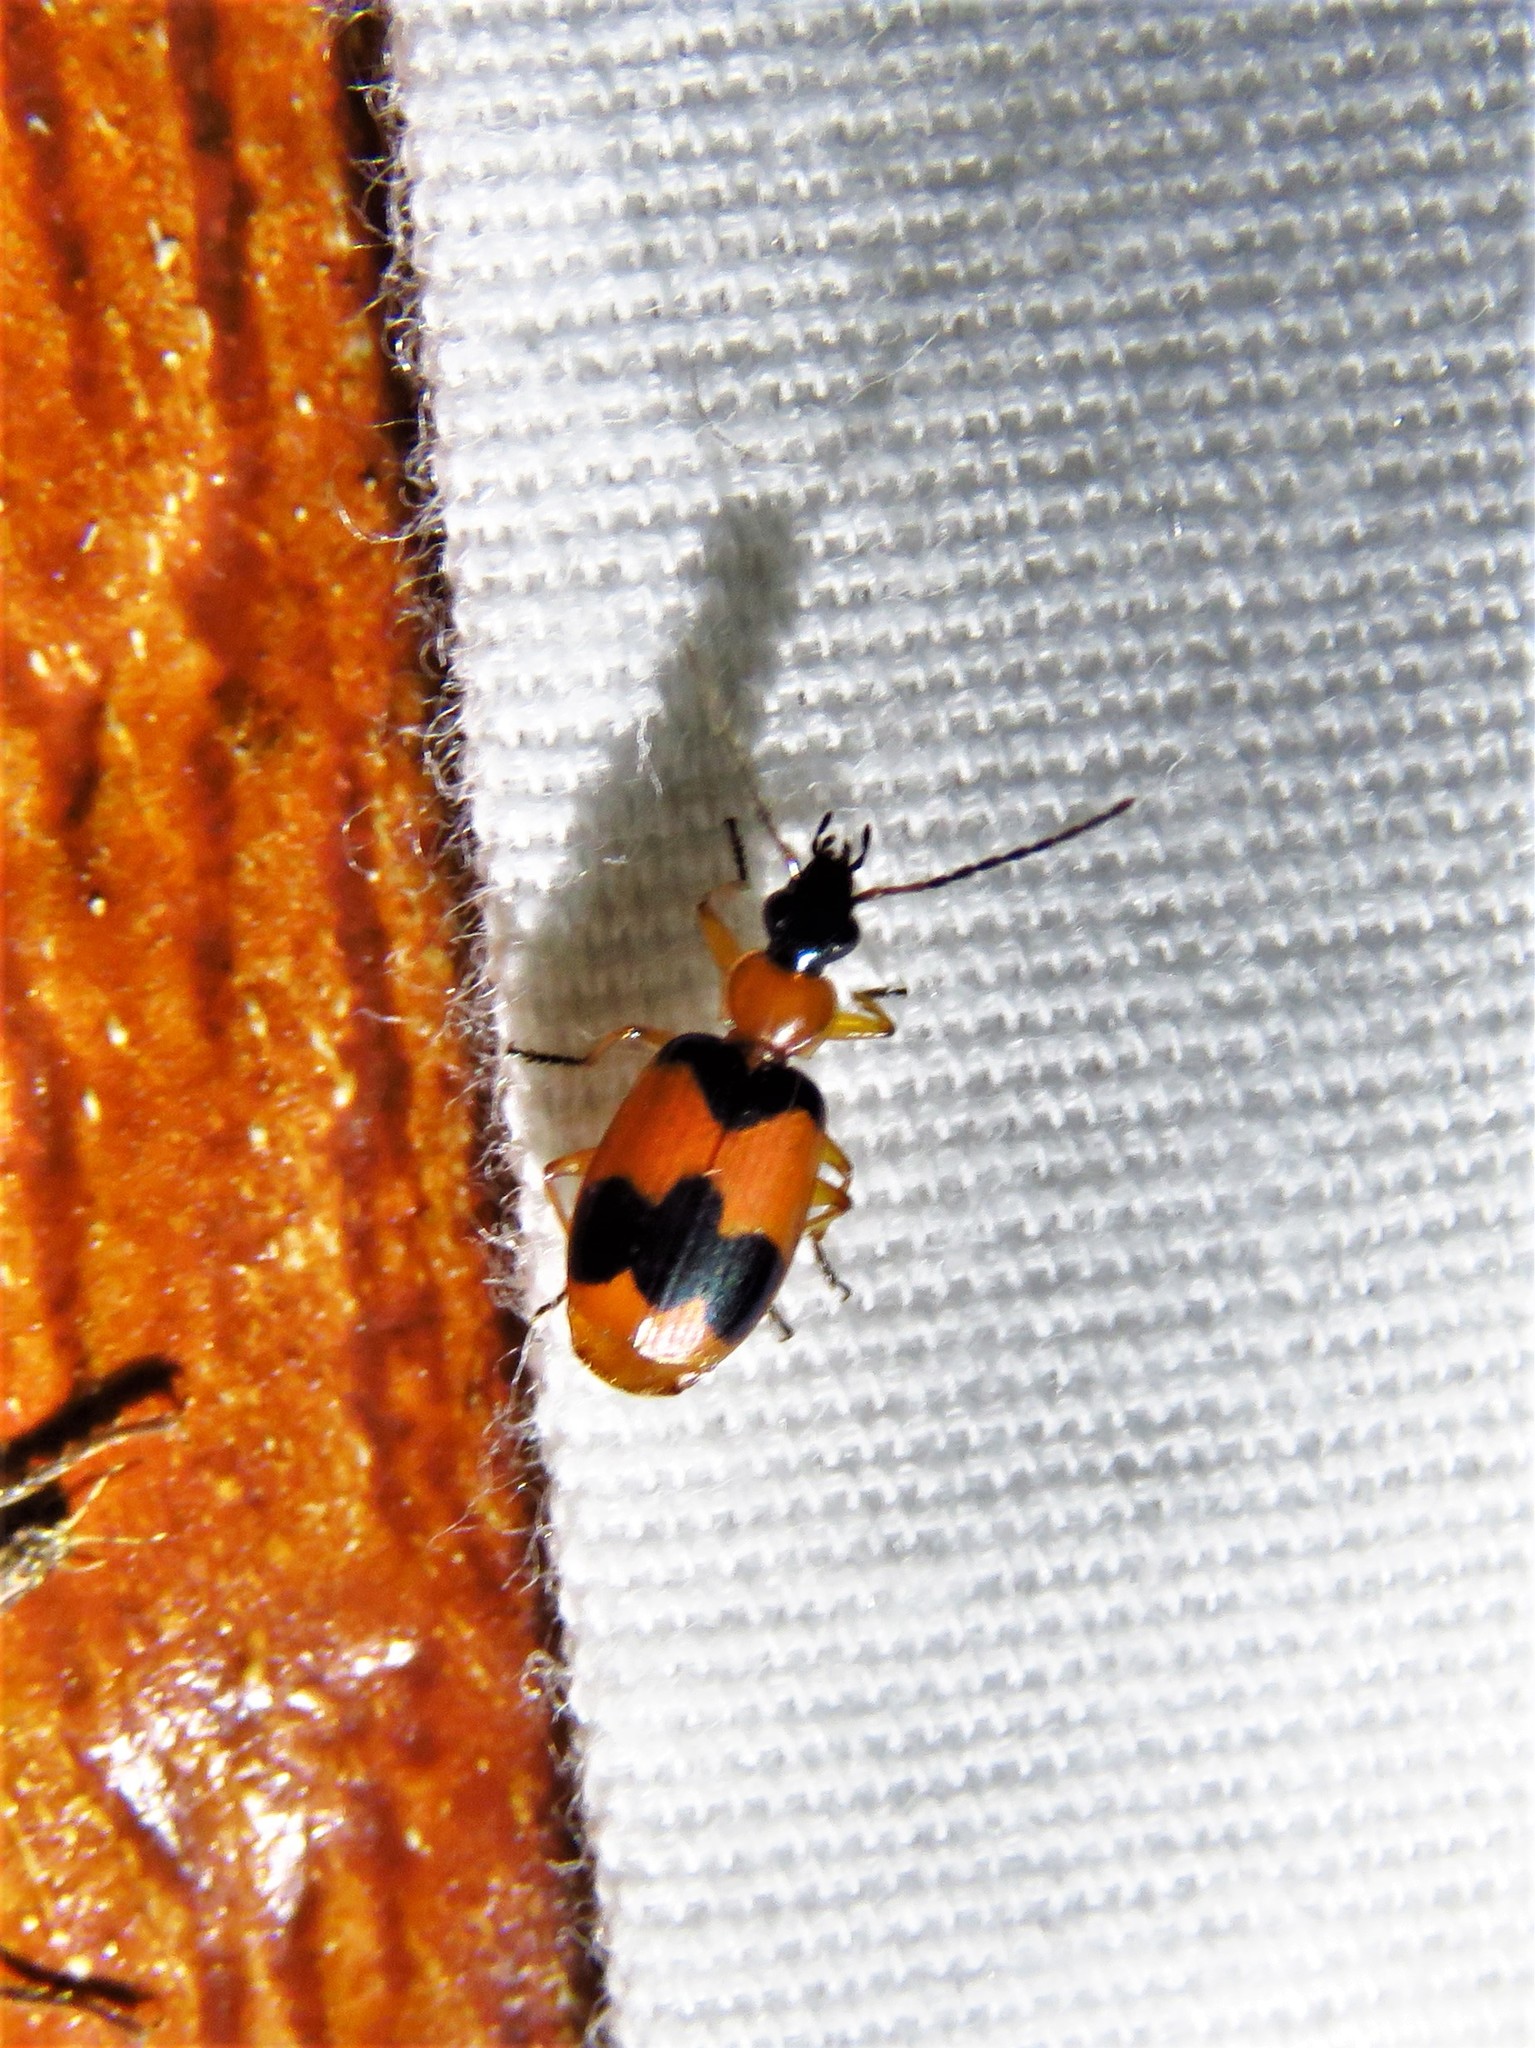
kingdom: Animalia
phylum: Arthropoda
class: Insecta
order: Coleoptera
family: Carabidae
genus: Lebia
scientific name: Lebia pulchella
